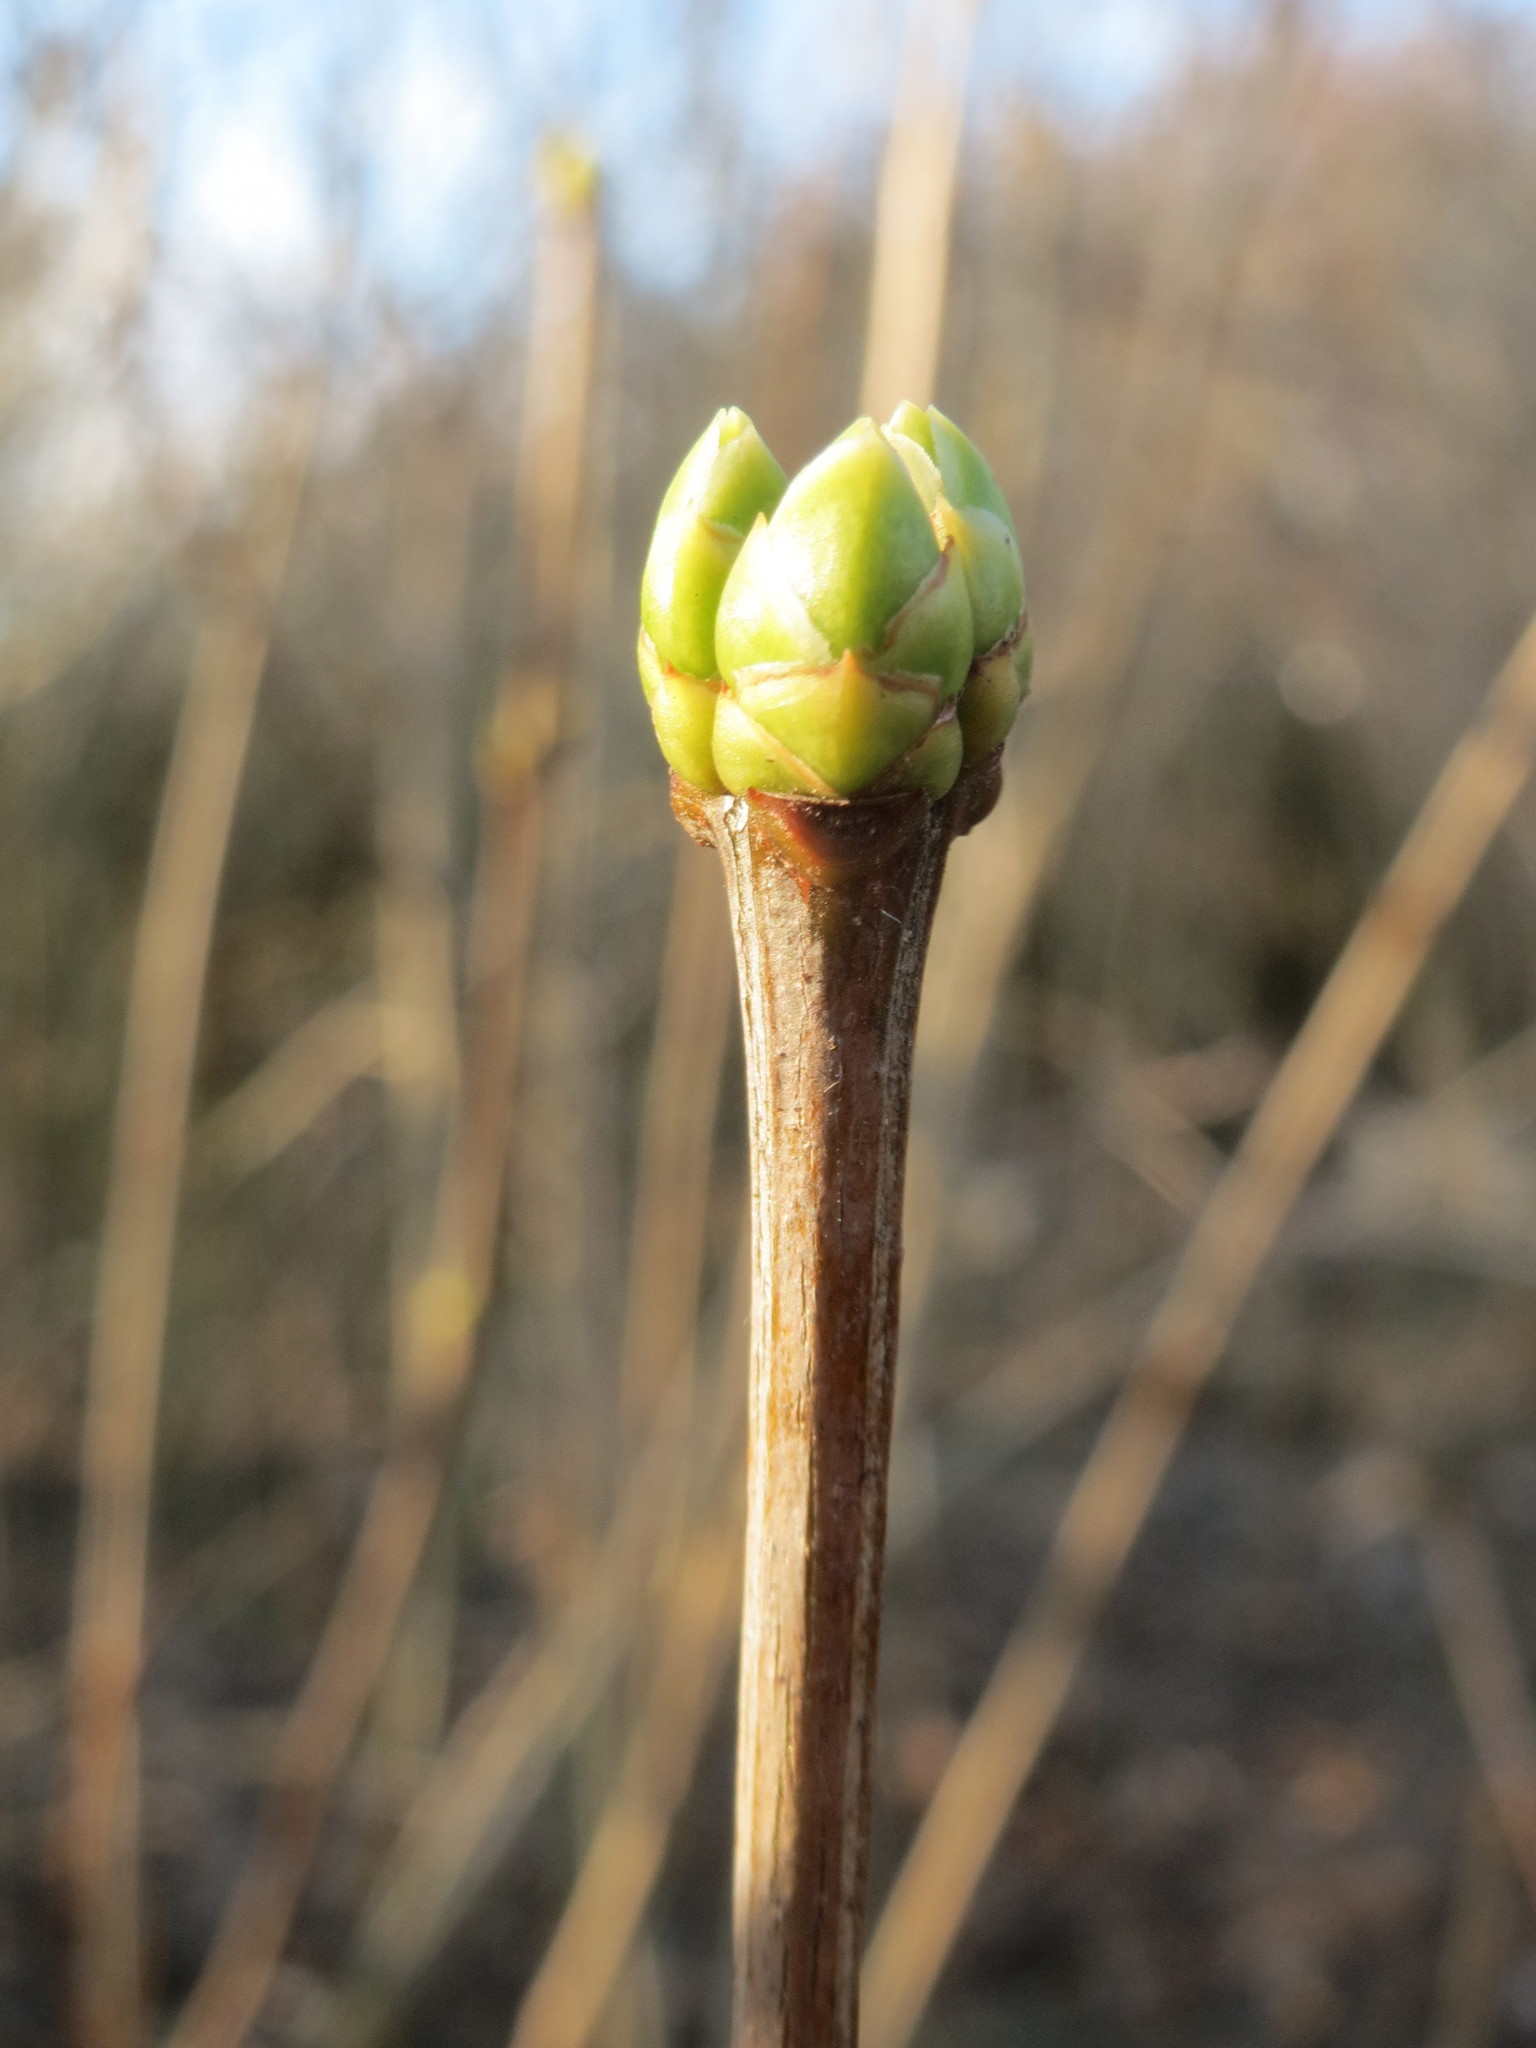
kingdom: Plantae
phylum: Tracheophyta
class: Magnoliopsida
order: Lamiales
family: Oleaceae
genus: Syringa
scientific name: Syringa vulgaris
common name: Common lilac
